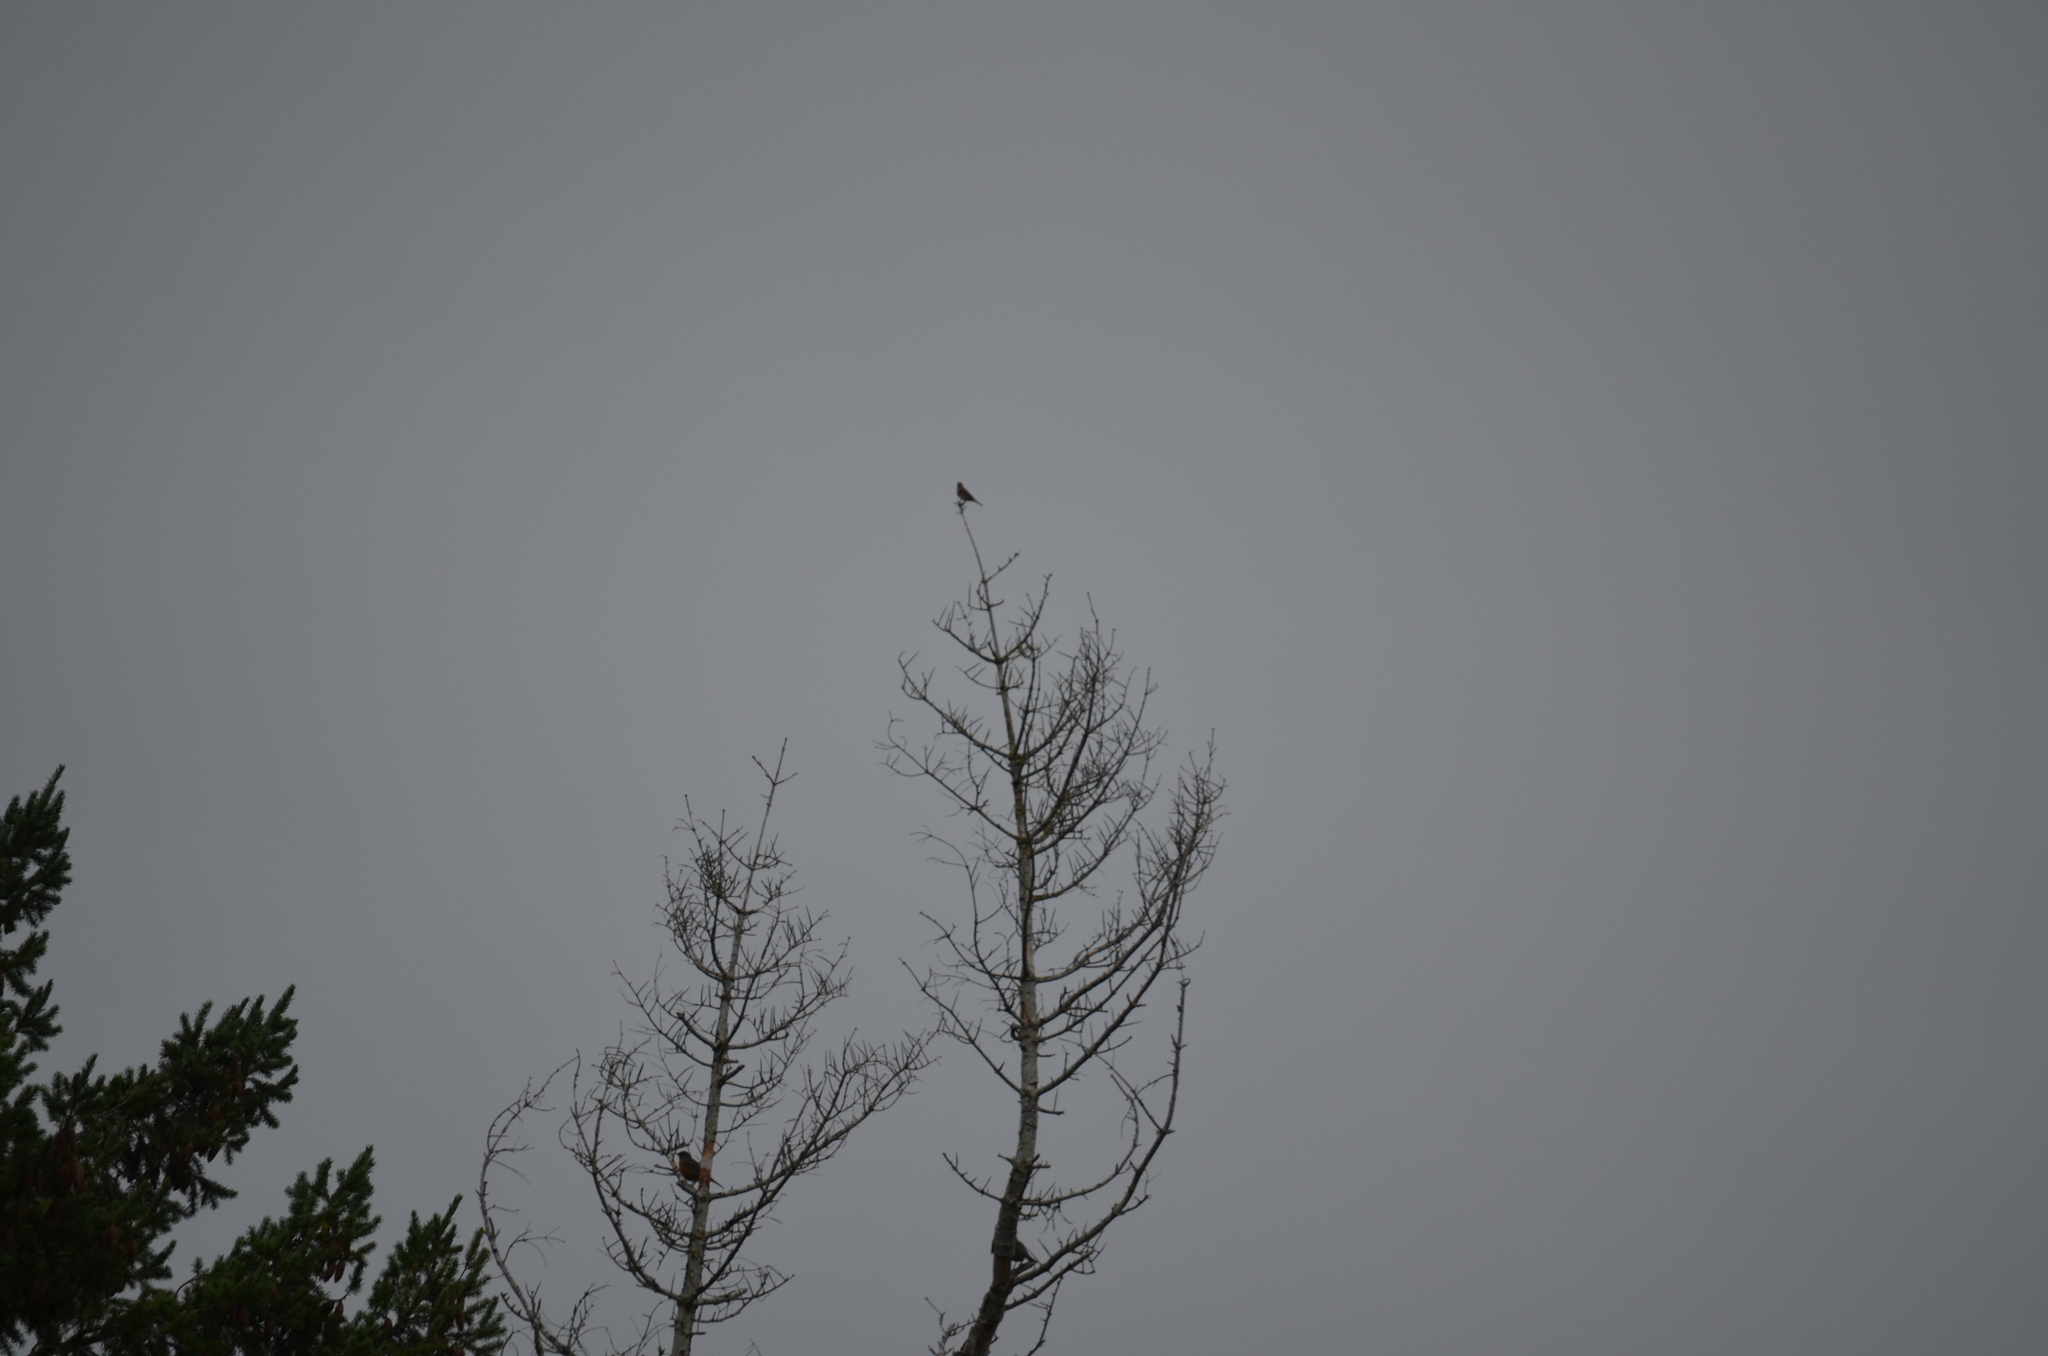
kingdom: Animalia
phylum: Chordata
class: Aves
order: Passeriformes
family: Turdidae
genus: Turdus
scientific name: Turdus migratorius
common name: American robin
